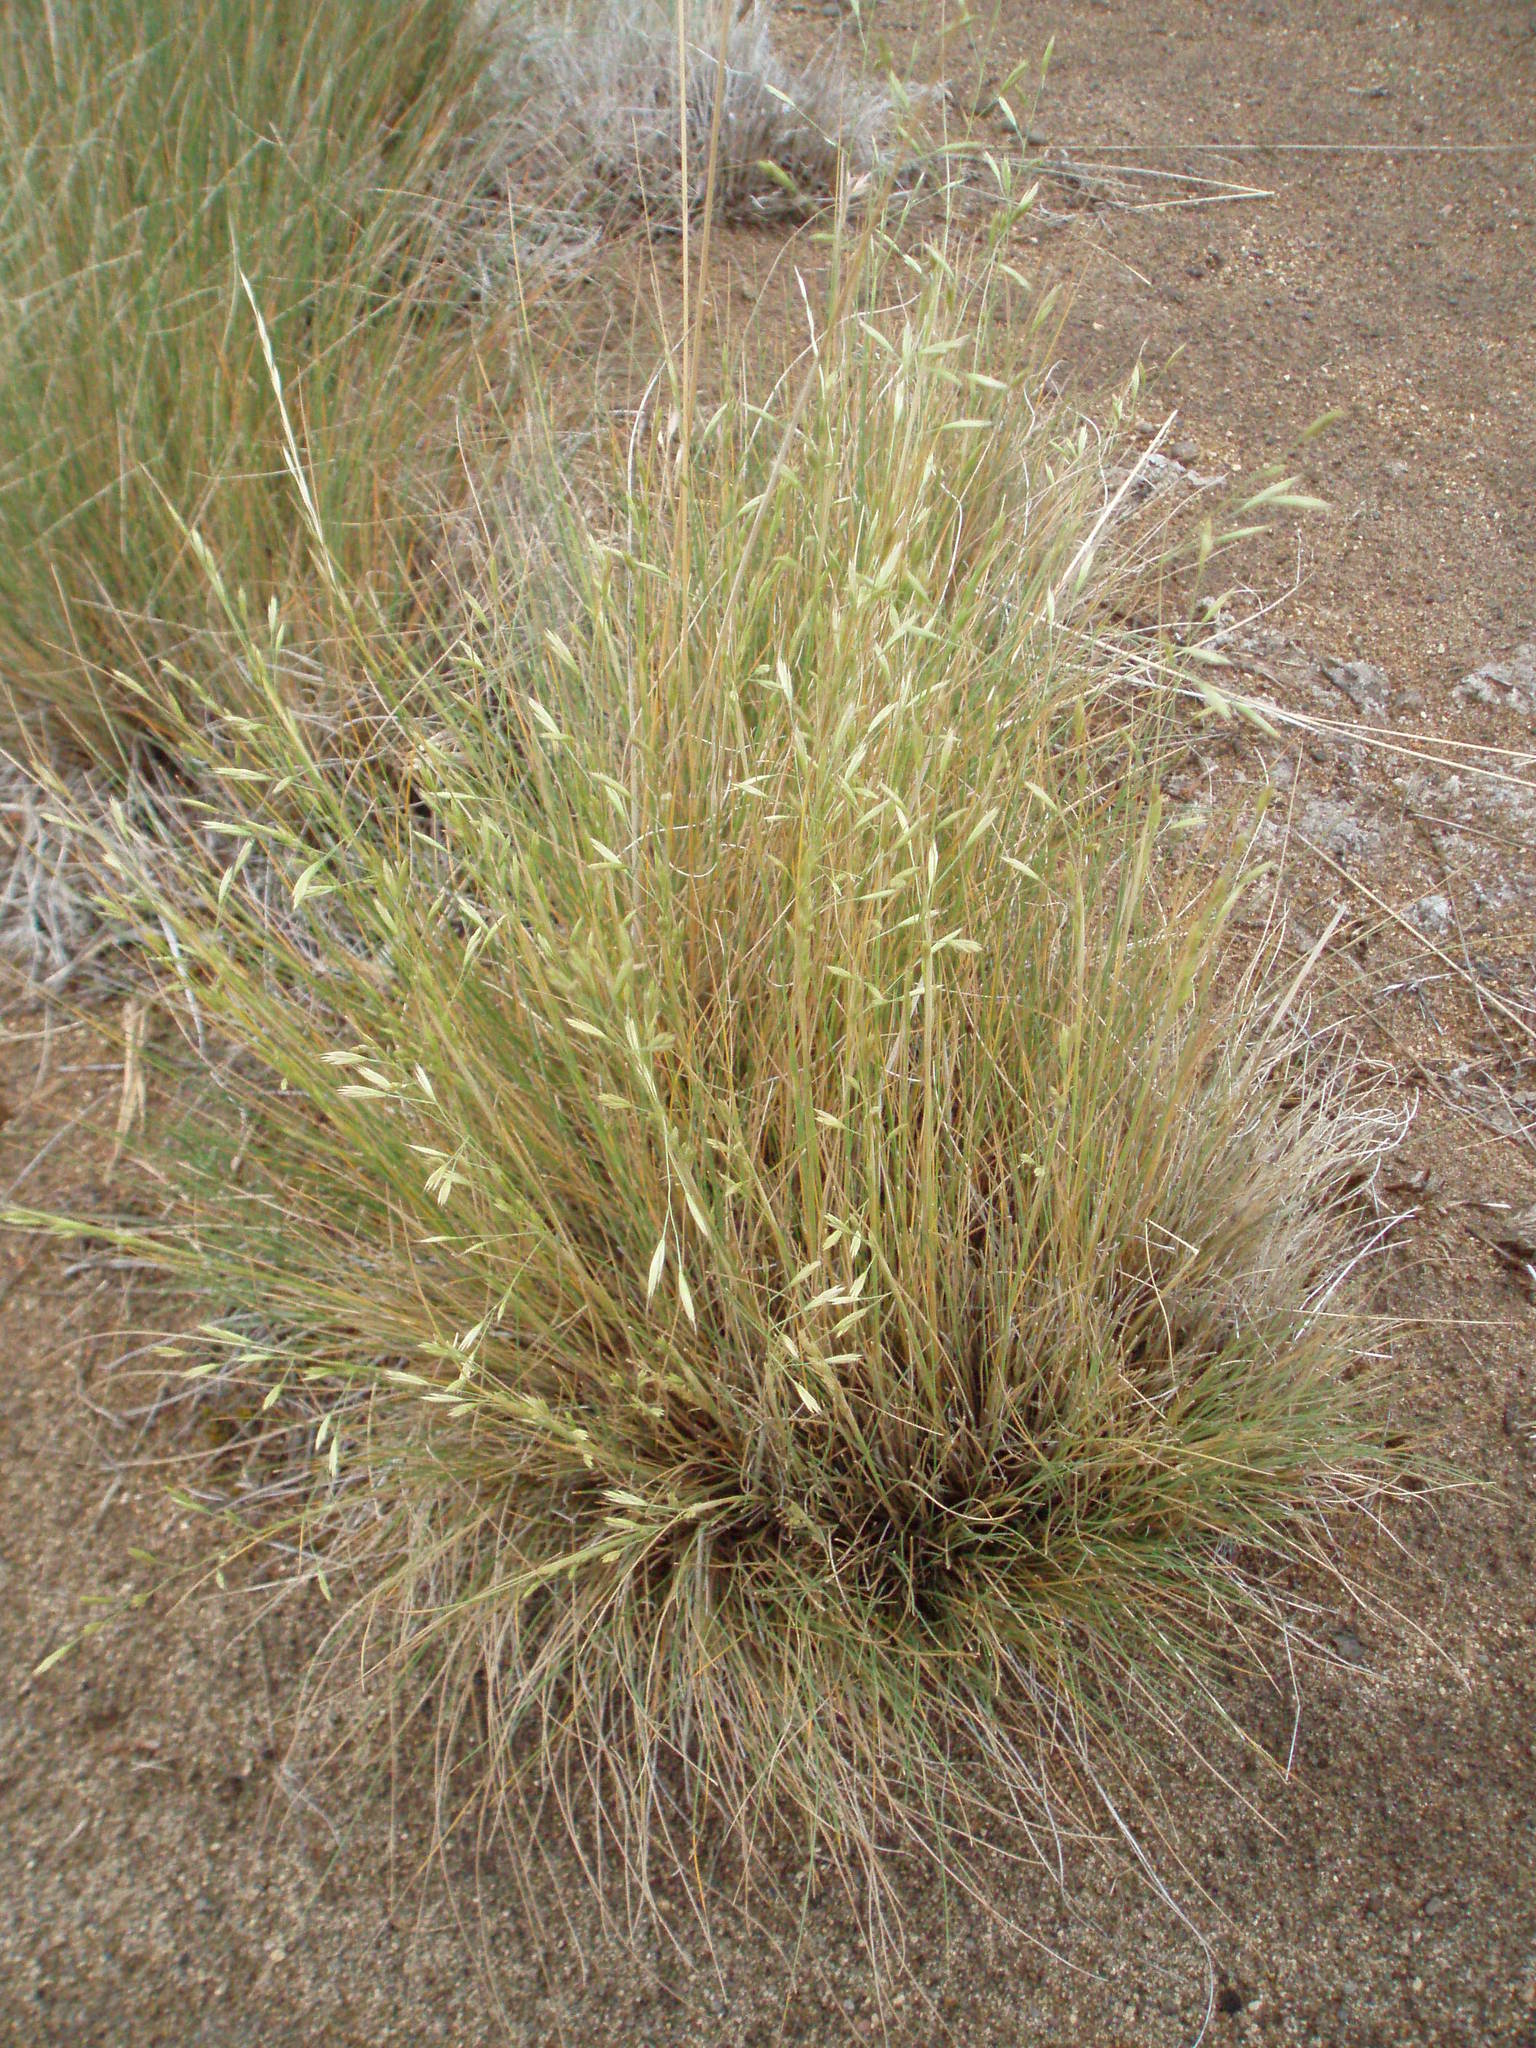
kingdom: Plantae
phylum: Tracheophyta
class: Liliopsida
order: Poales
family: Poaceae
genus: Festuca
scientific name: Festuca idahoensis
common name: Idaho fescue
